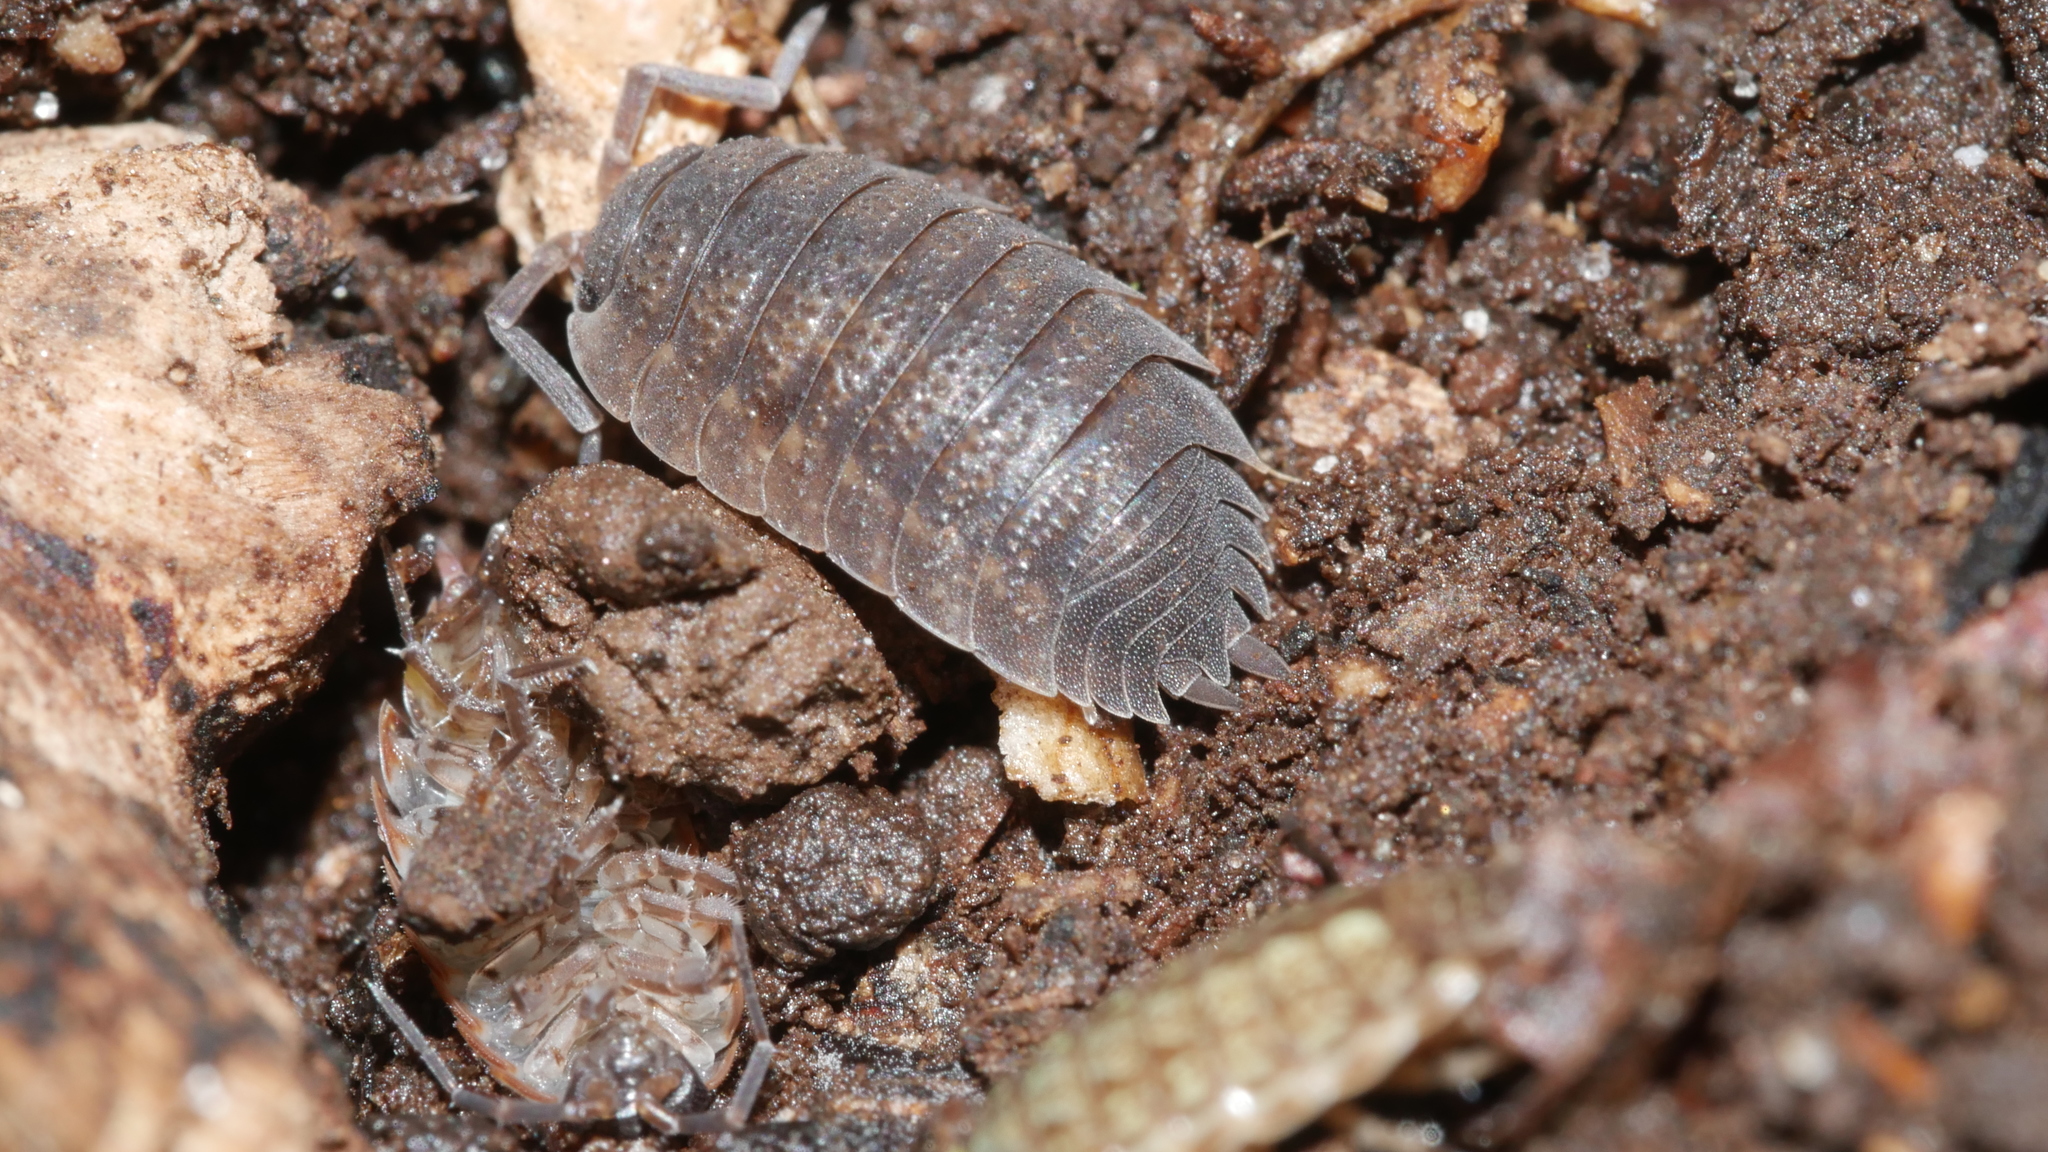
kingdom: Animalia
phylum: Arthropoda
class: Malacostraca
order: Isopoda
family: Porcellionidae
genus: Porcellio
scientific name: Porcellio scaber
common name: Common rough woodlouse
